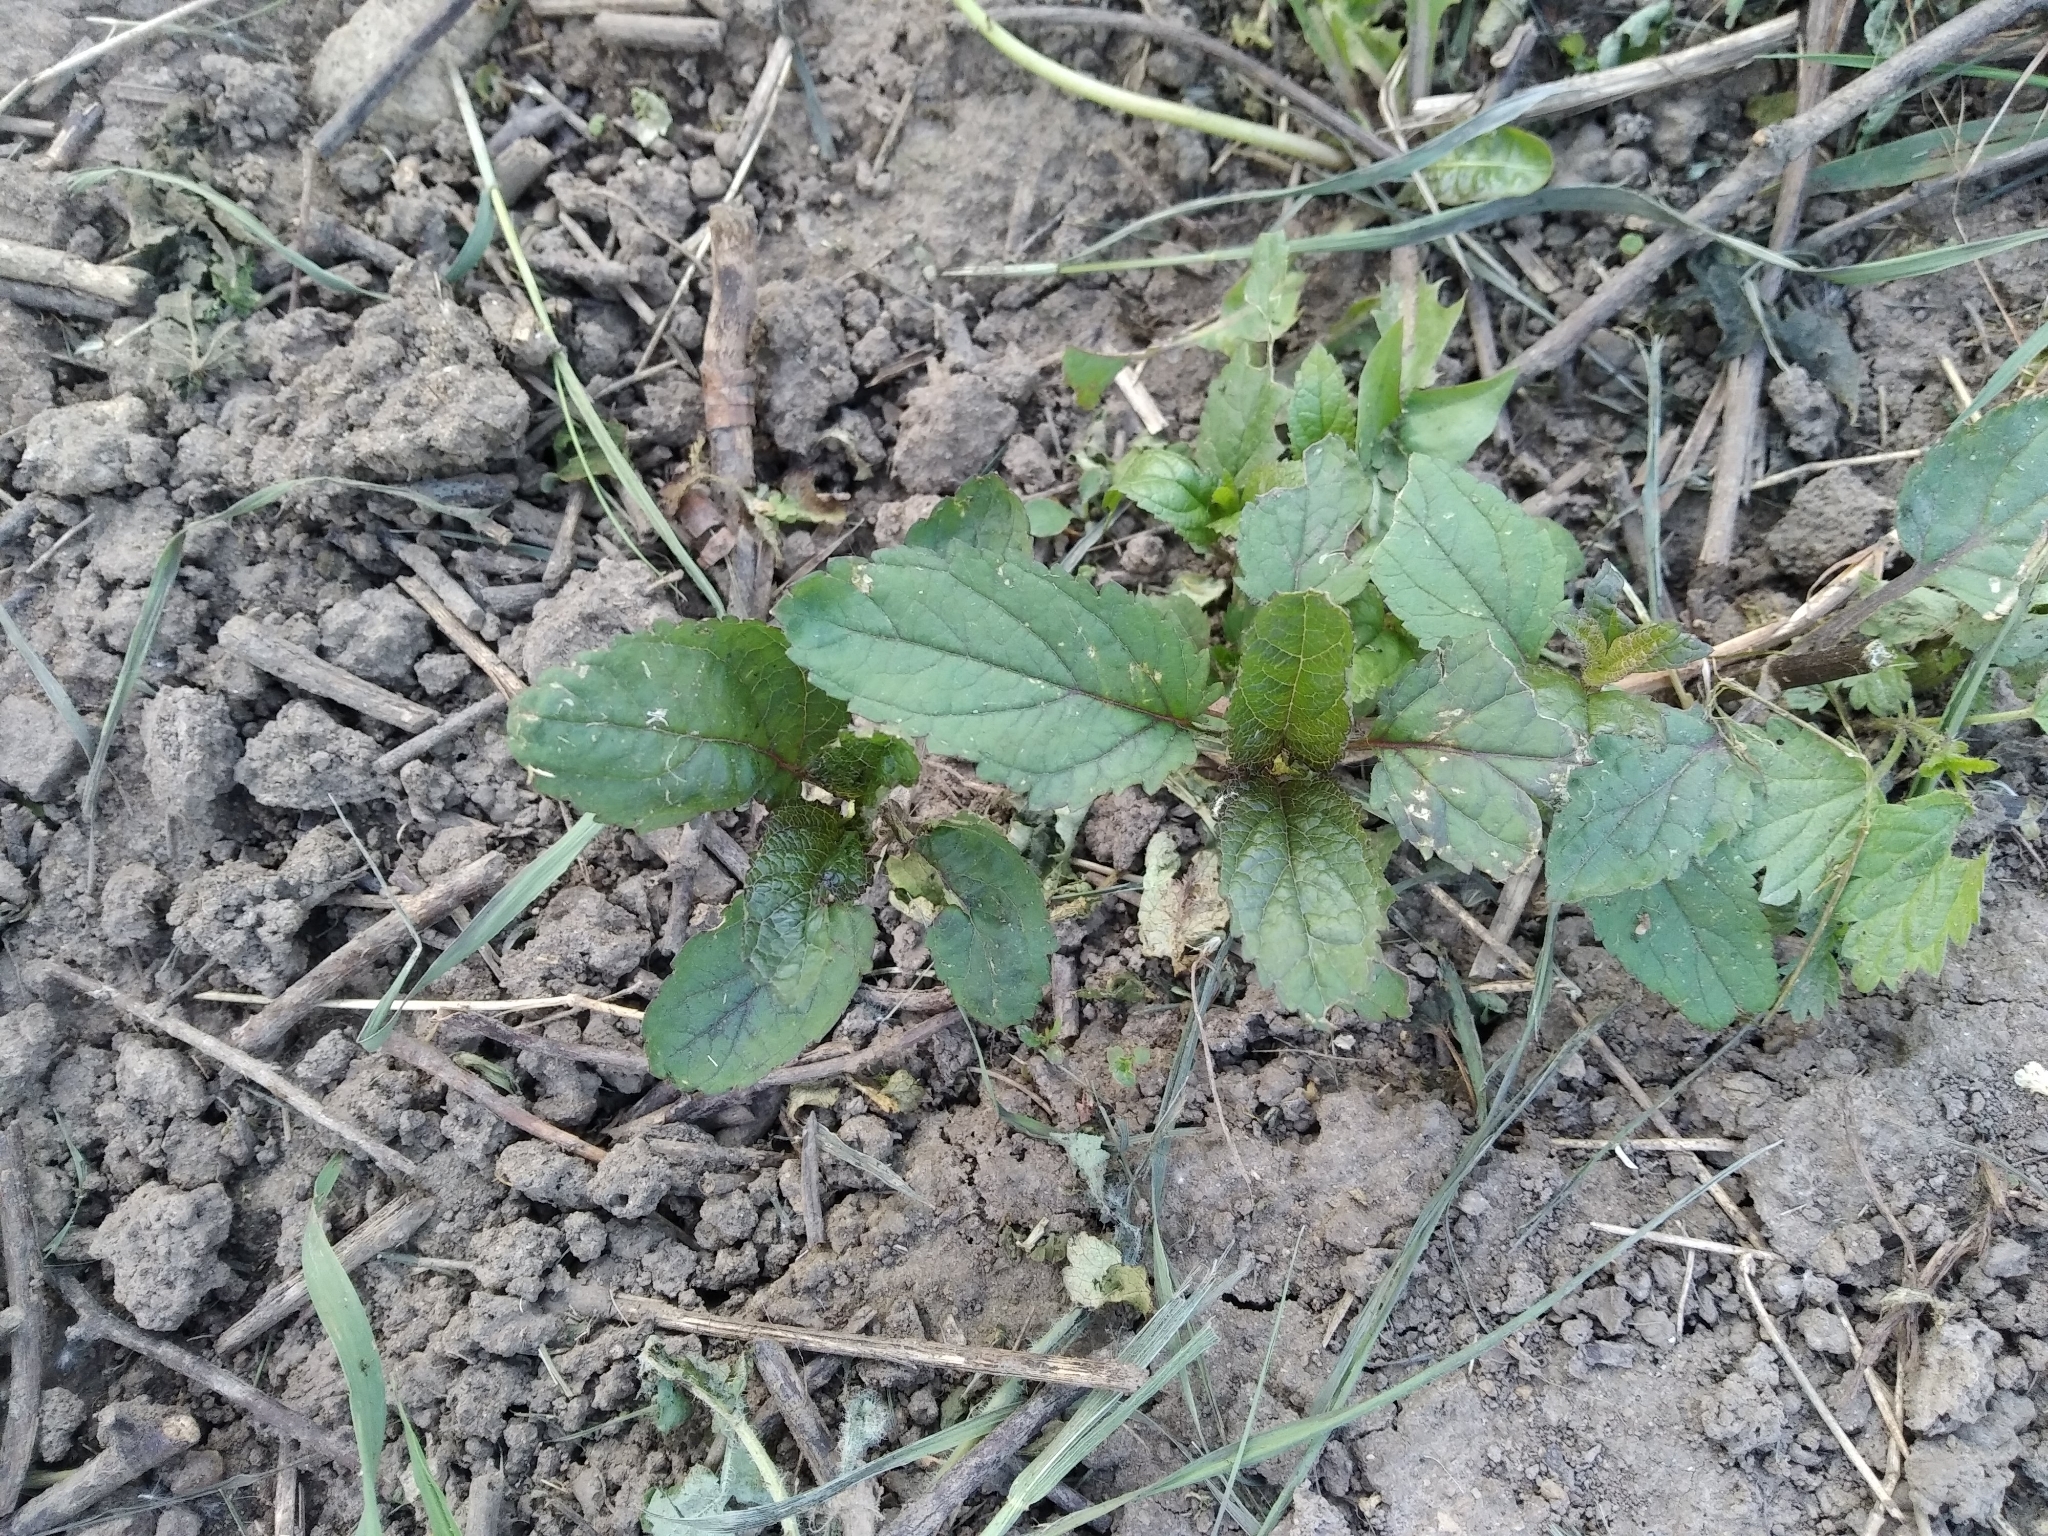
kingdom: Plantae
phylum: Tracheophyta
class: Magnoliopsida
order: Lamiales
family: Scrophulariaceae
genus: Scrophularia
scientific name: Scrophularia nodosa
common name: Common figwort
